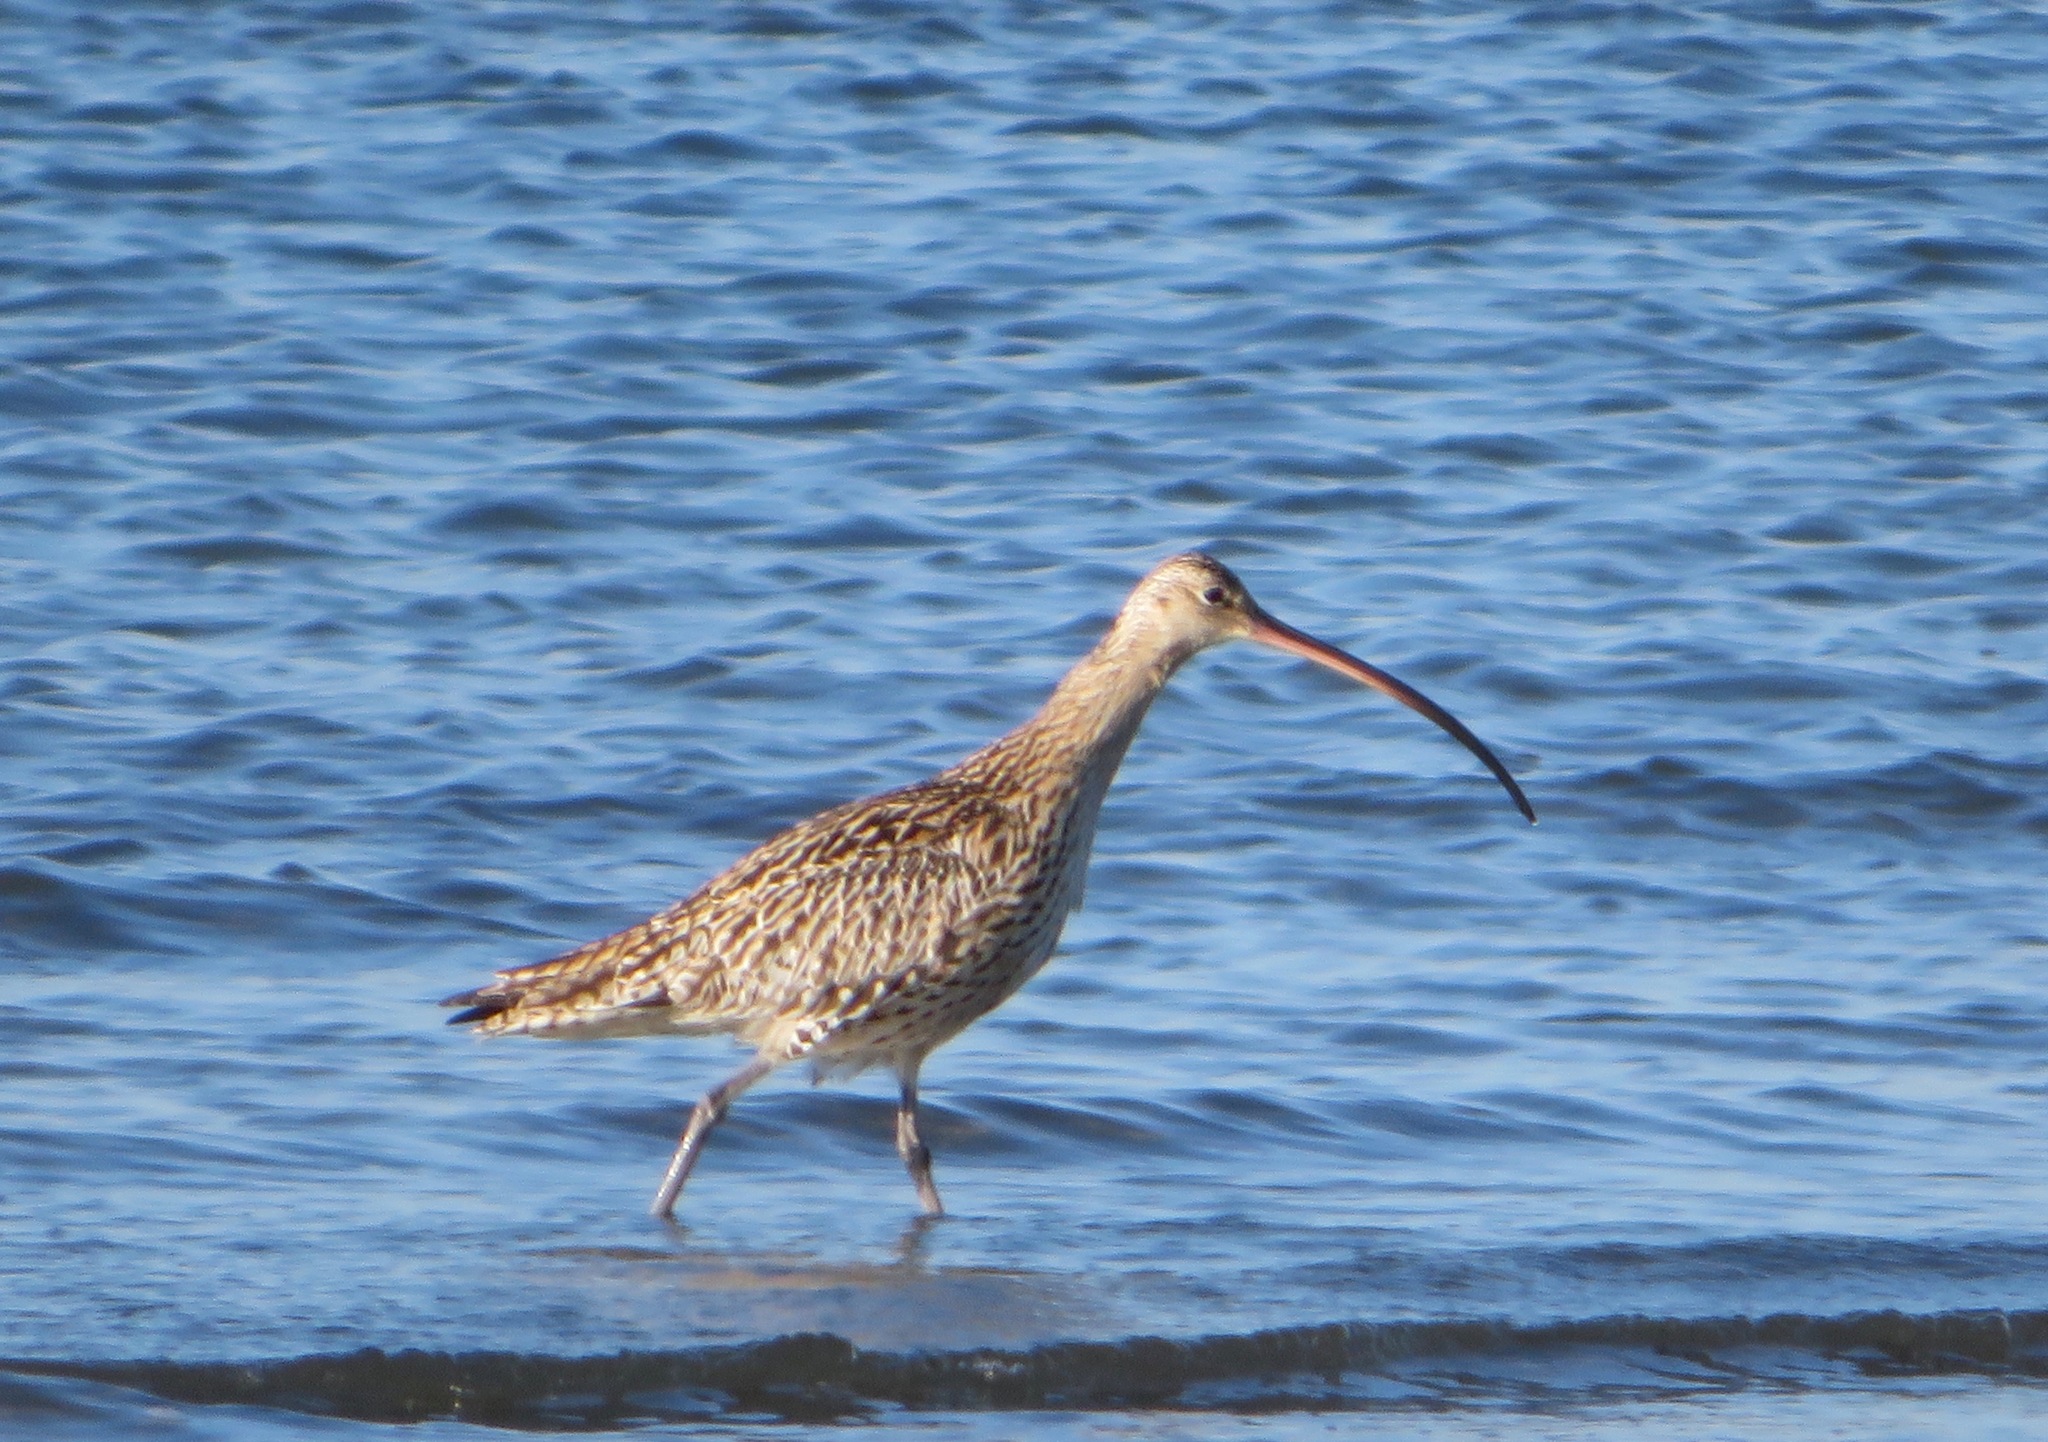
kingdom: Animalia
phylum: Chordata
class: Aves
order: Charadriiformes
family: Scolopacidae
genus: Numenius
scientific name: Numenius madagascariensis
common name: Far eastern curlew
